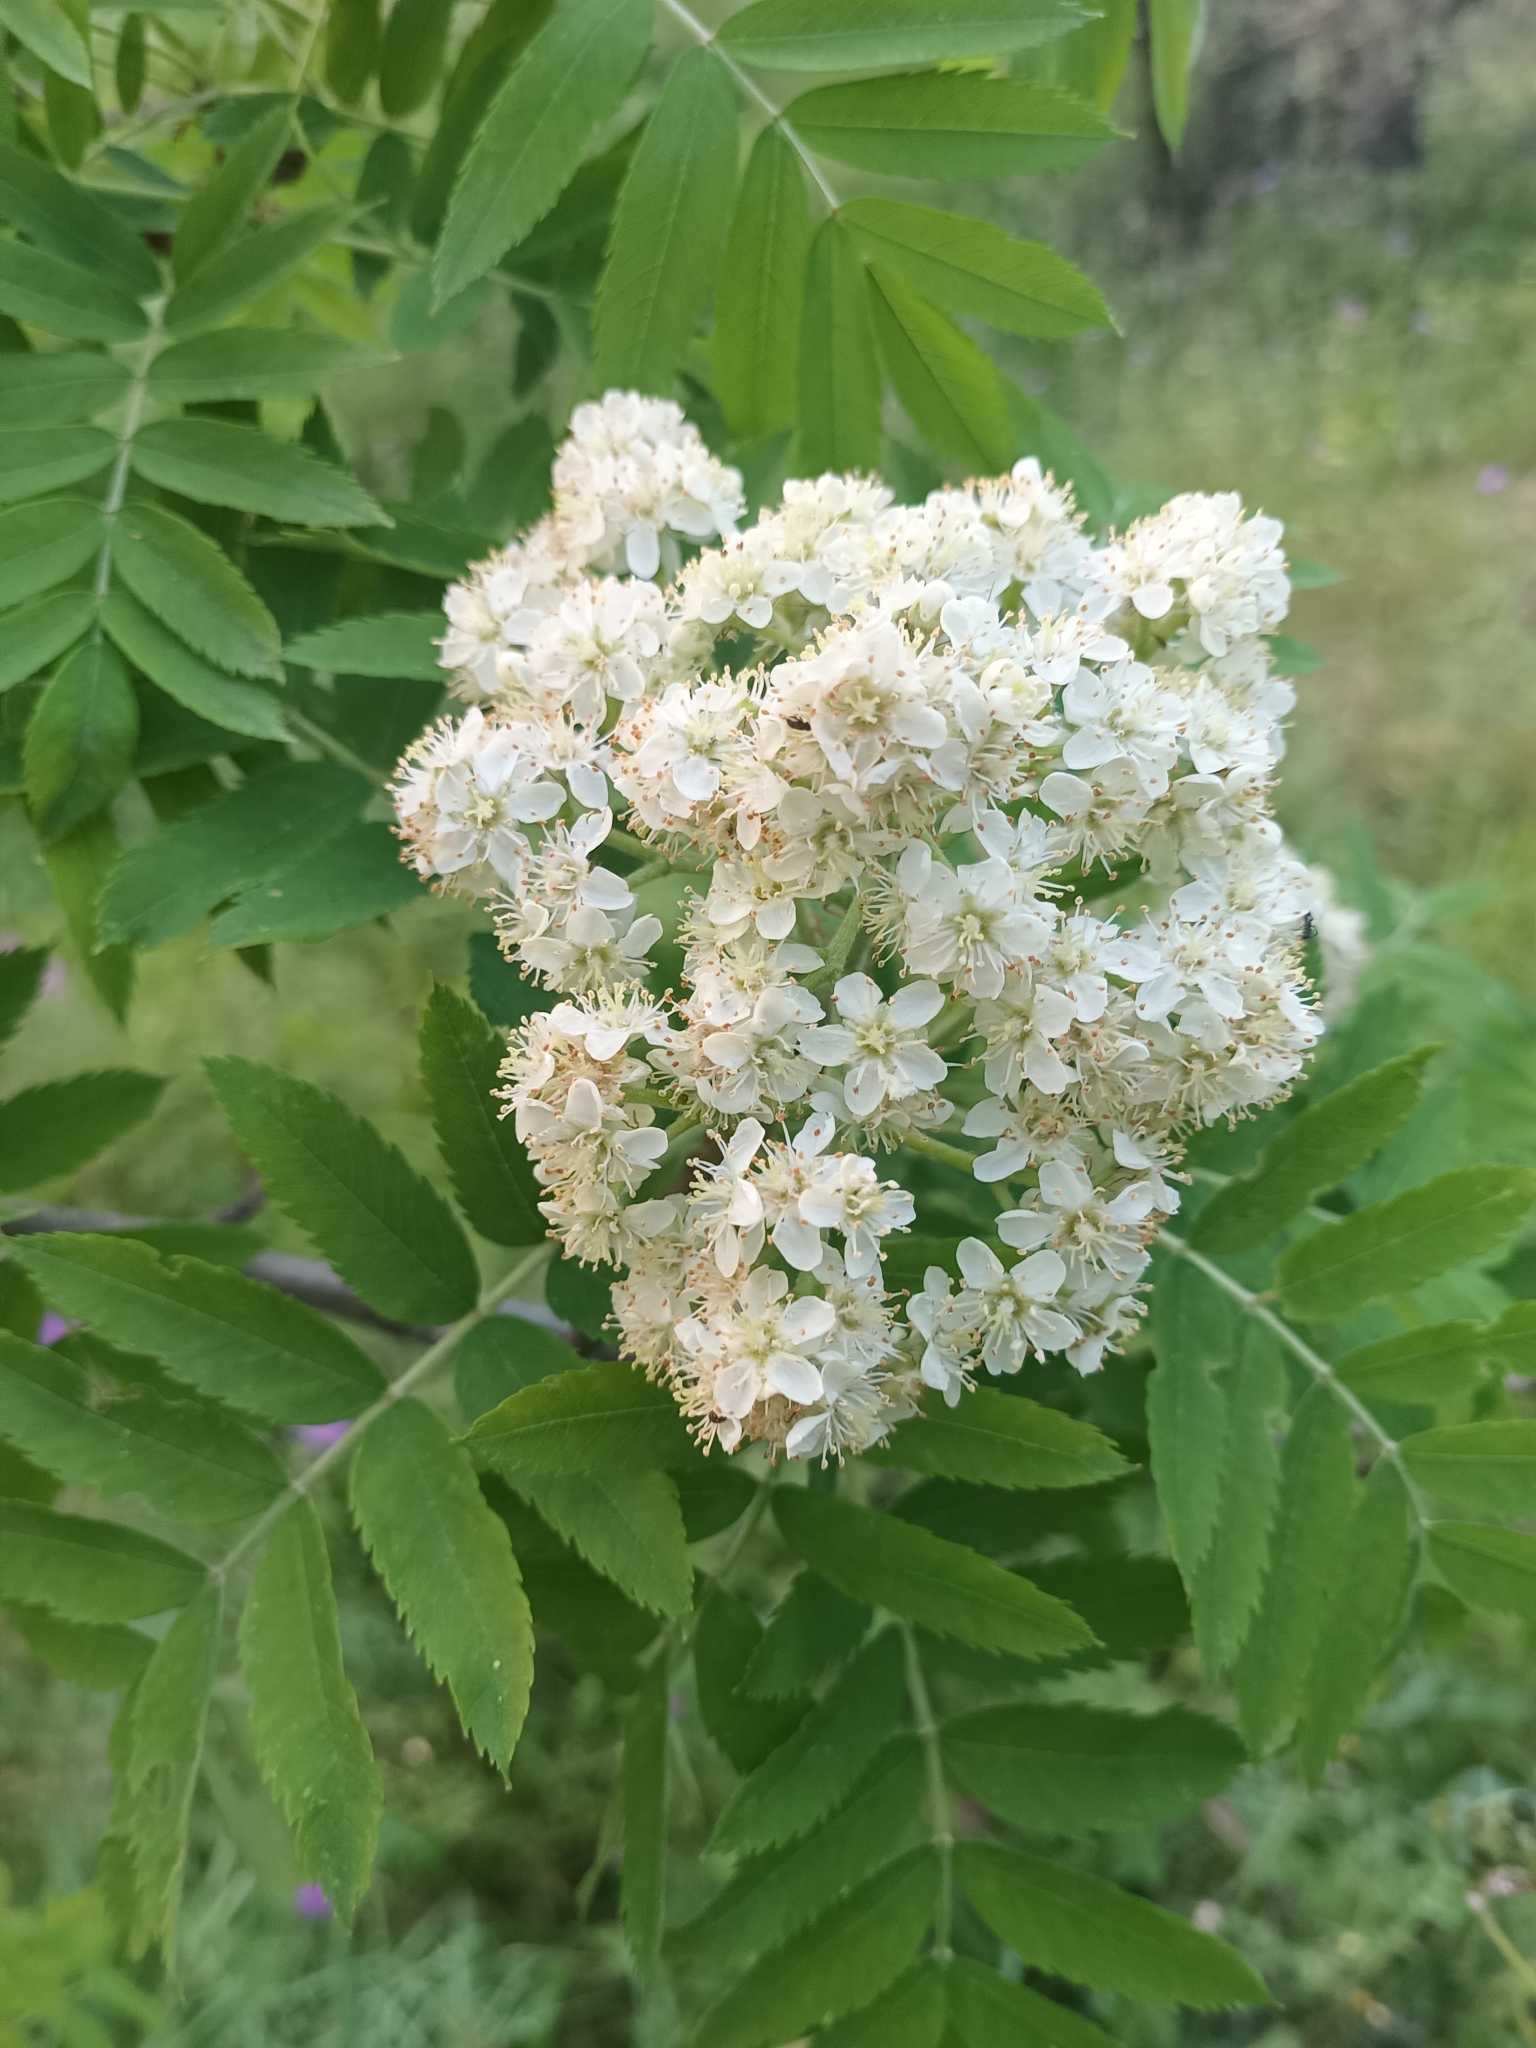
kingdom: Plantae
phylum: Tracheophyta
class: Magnoliopsida
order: Rosales
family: Rosaceae
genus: Cormus
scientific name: Cormus domestica
